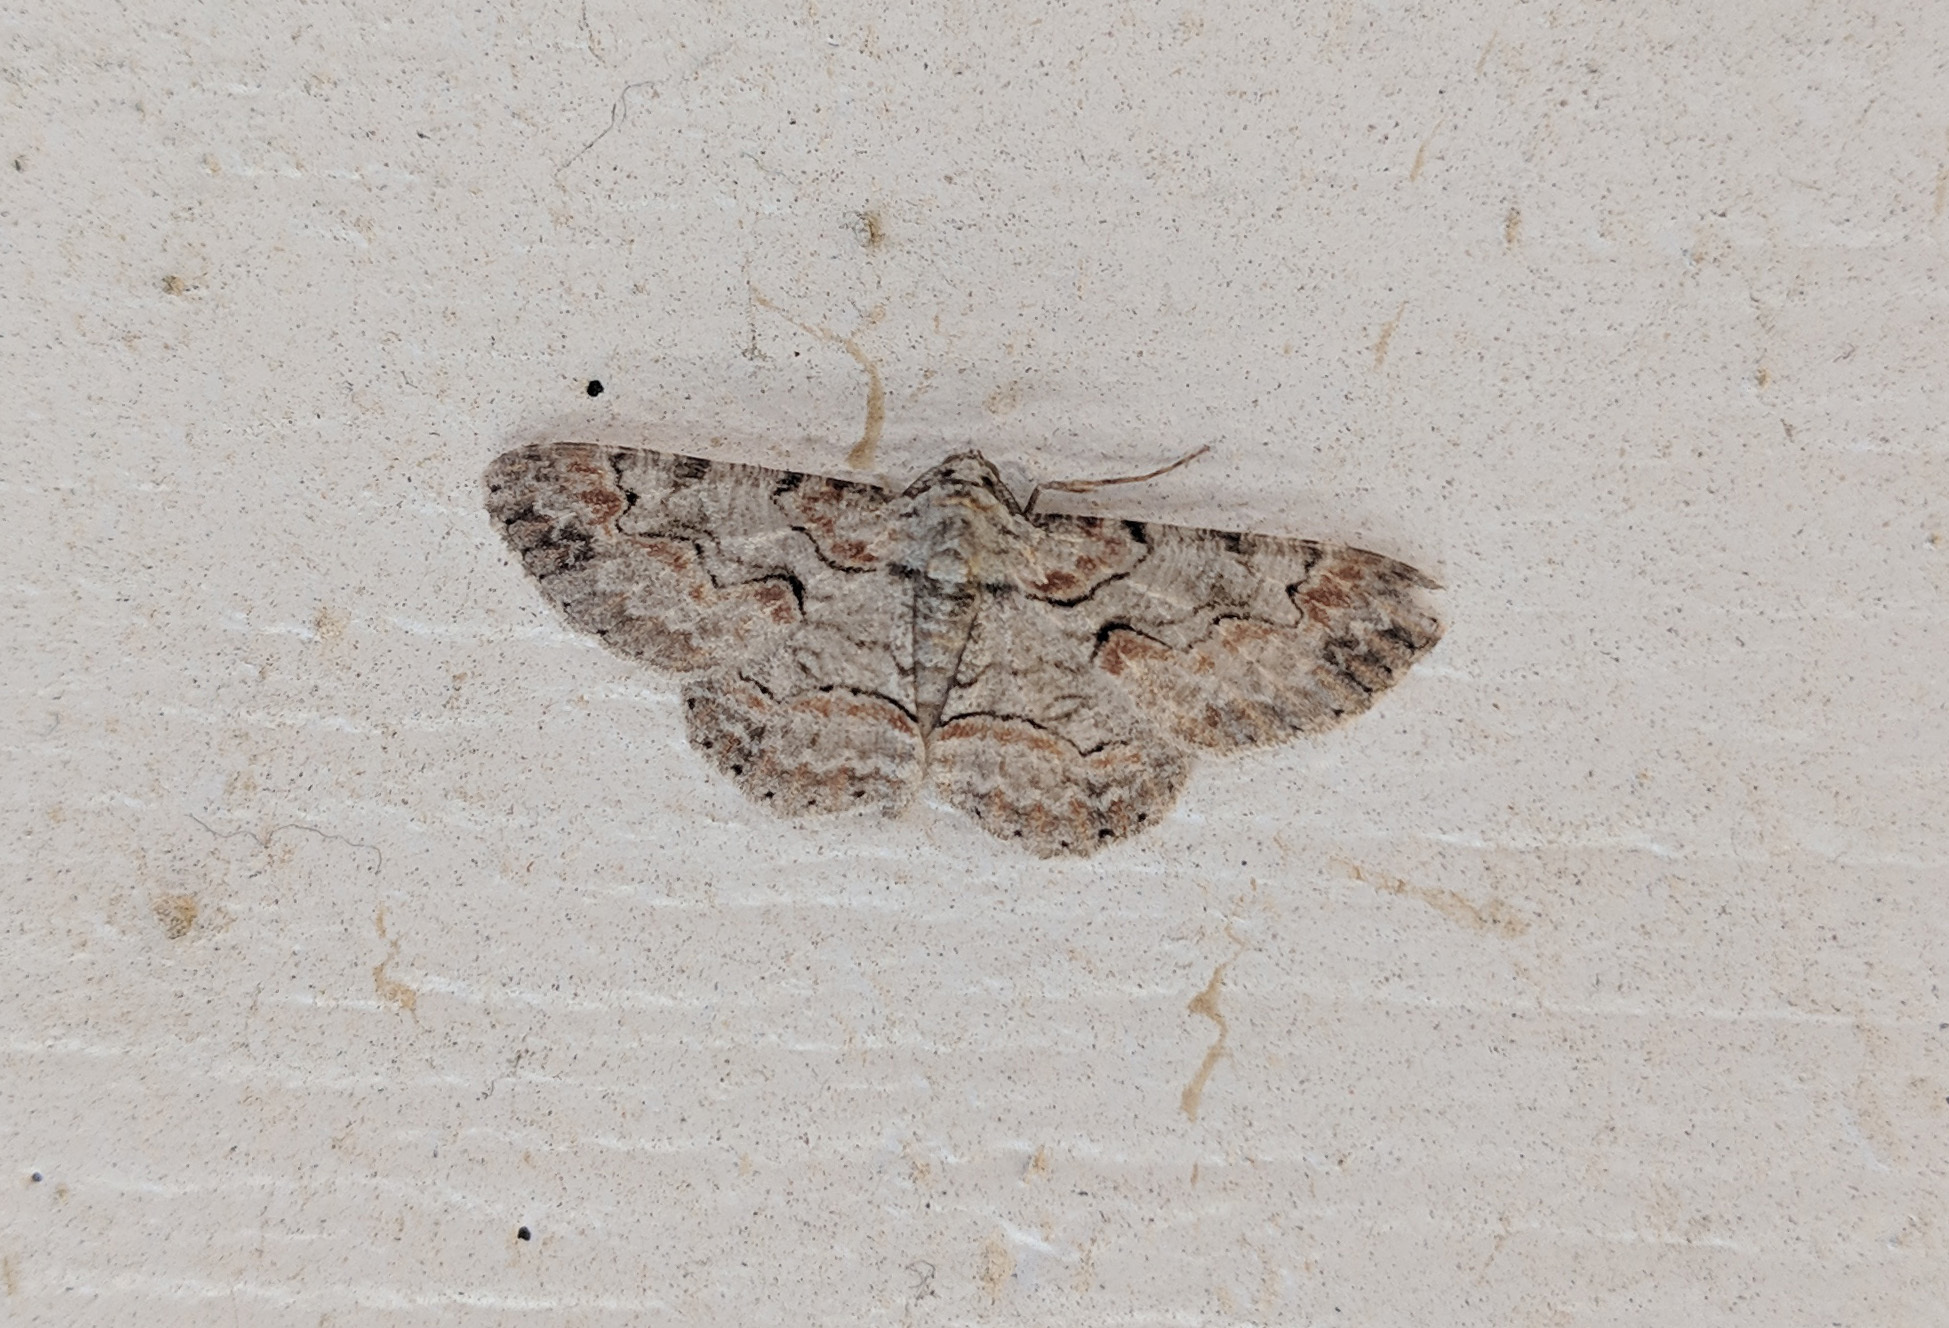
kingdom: Animalia
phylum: Arthropoda
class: Insecta
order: Lepidoptera
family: Geometridae
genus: Iridopsis
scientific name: Iridopsis defectaria
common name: Brown-shaded gray
